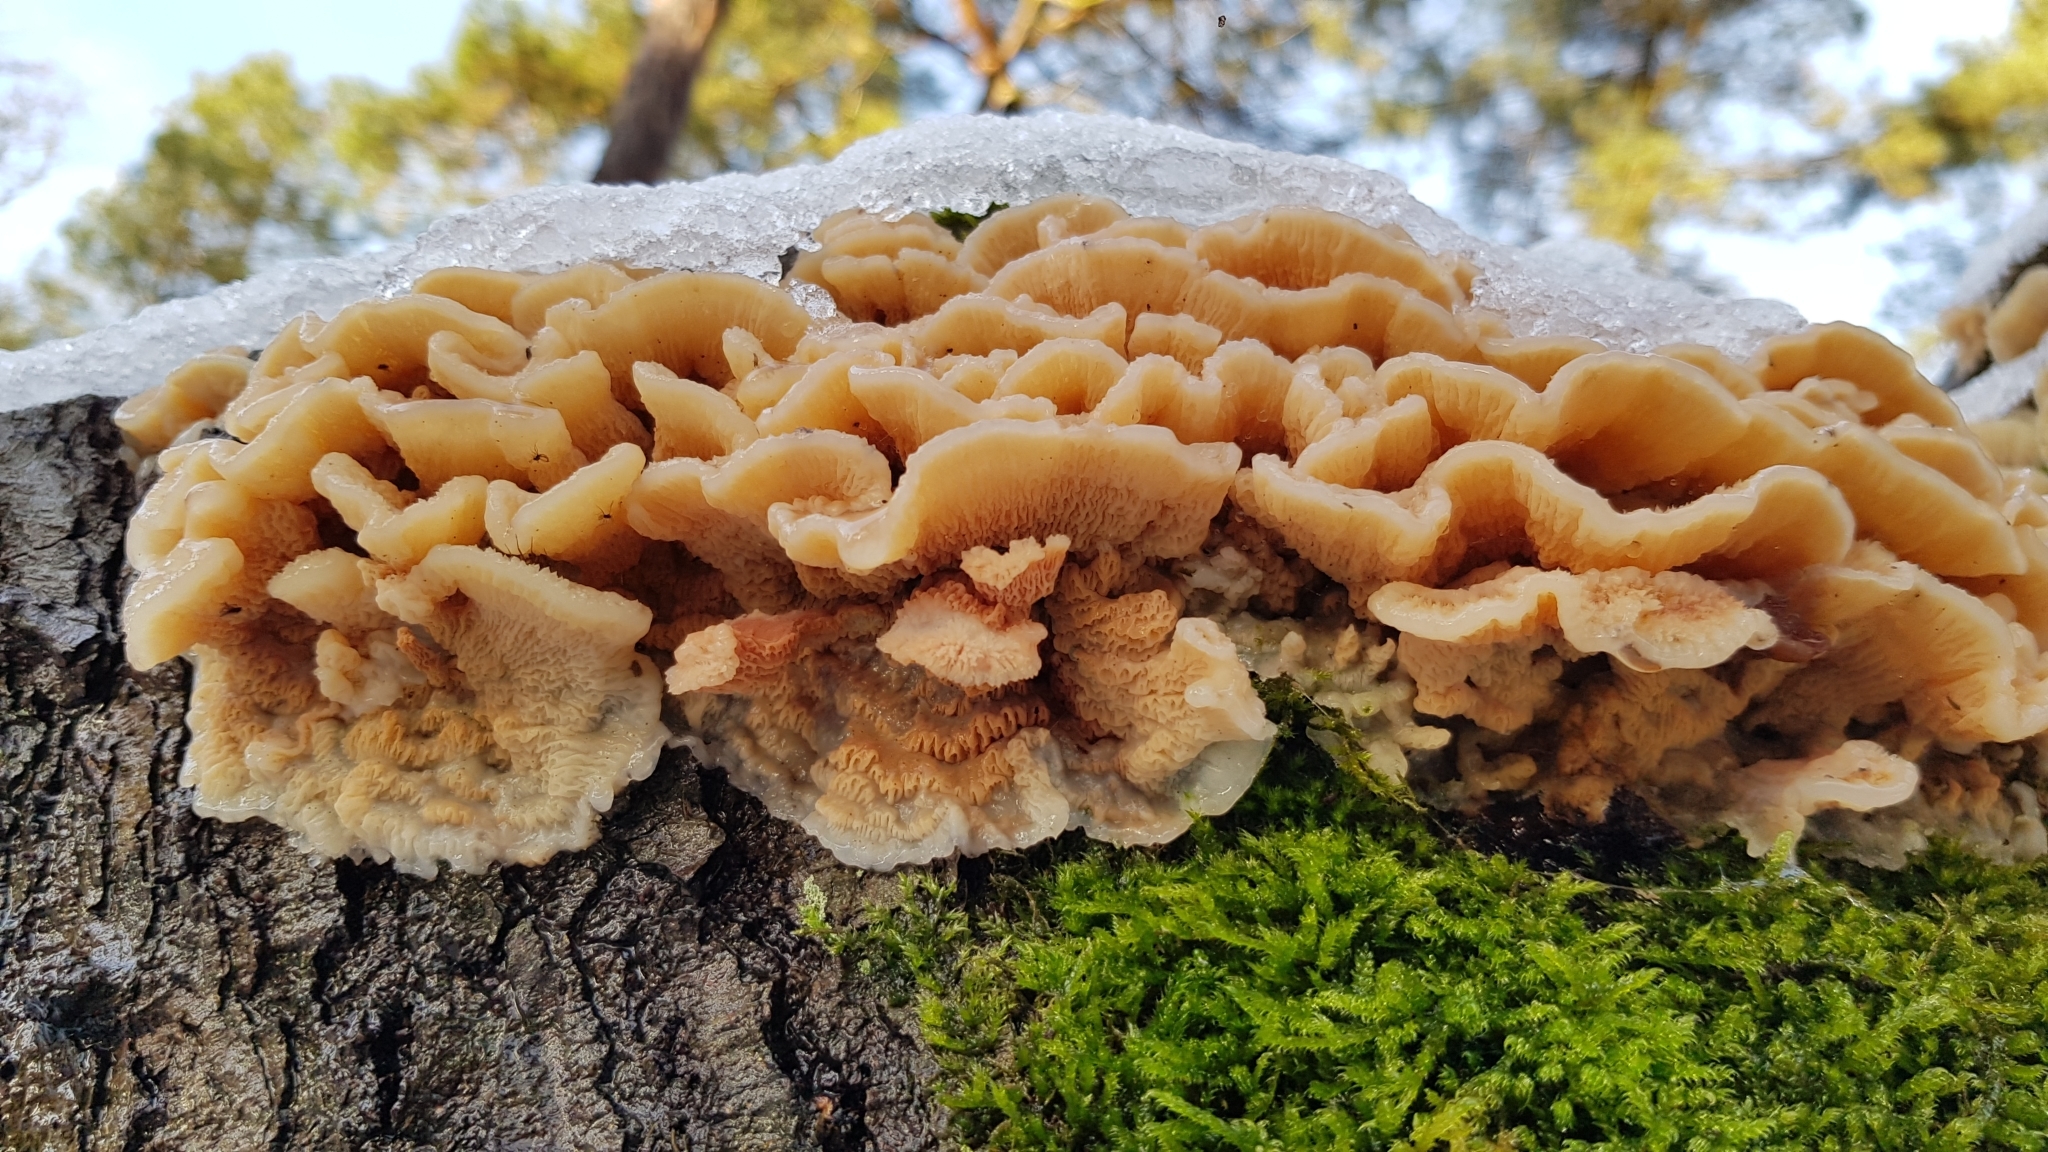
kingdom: Fungi
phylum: Basidiomycota
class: Agaricomycetes
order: Polyporales
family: Meruliaceae
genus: Phlebia
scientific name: Phlebia tremellosa
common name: Jelly rot
